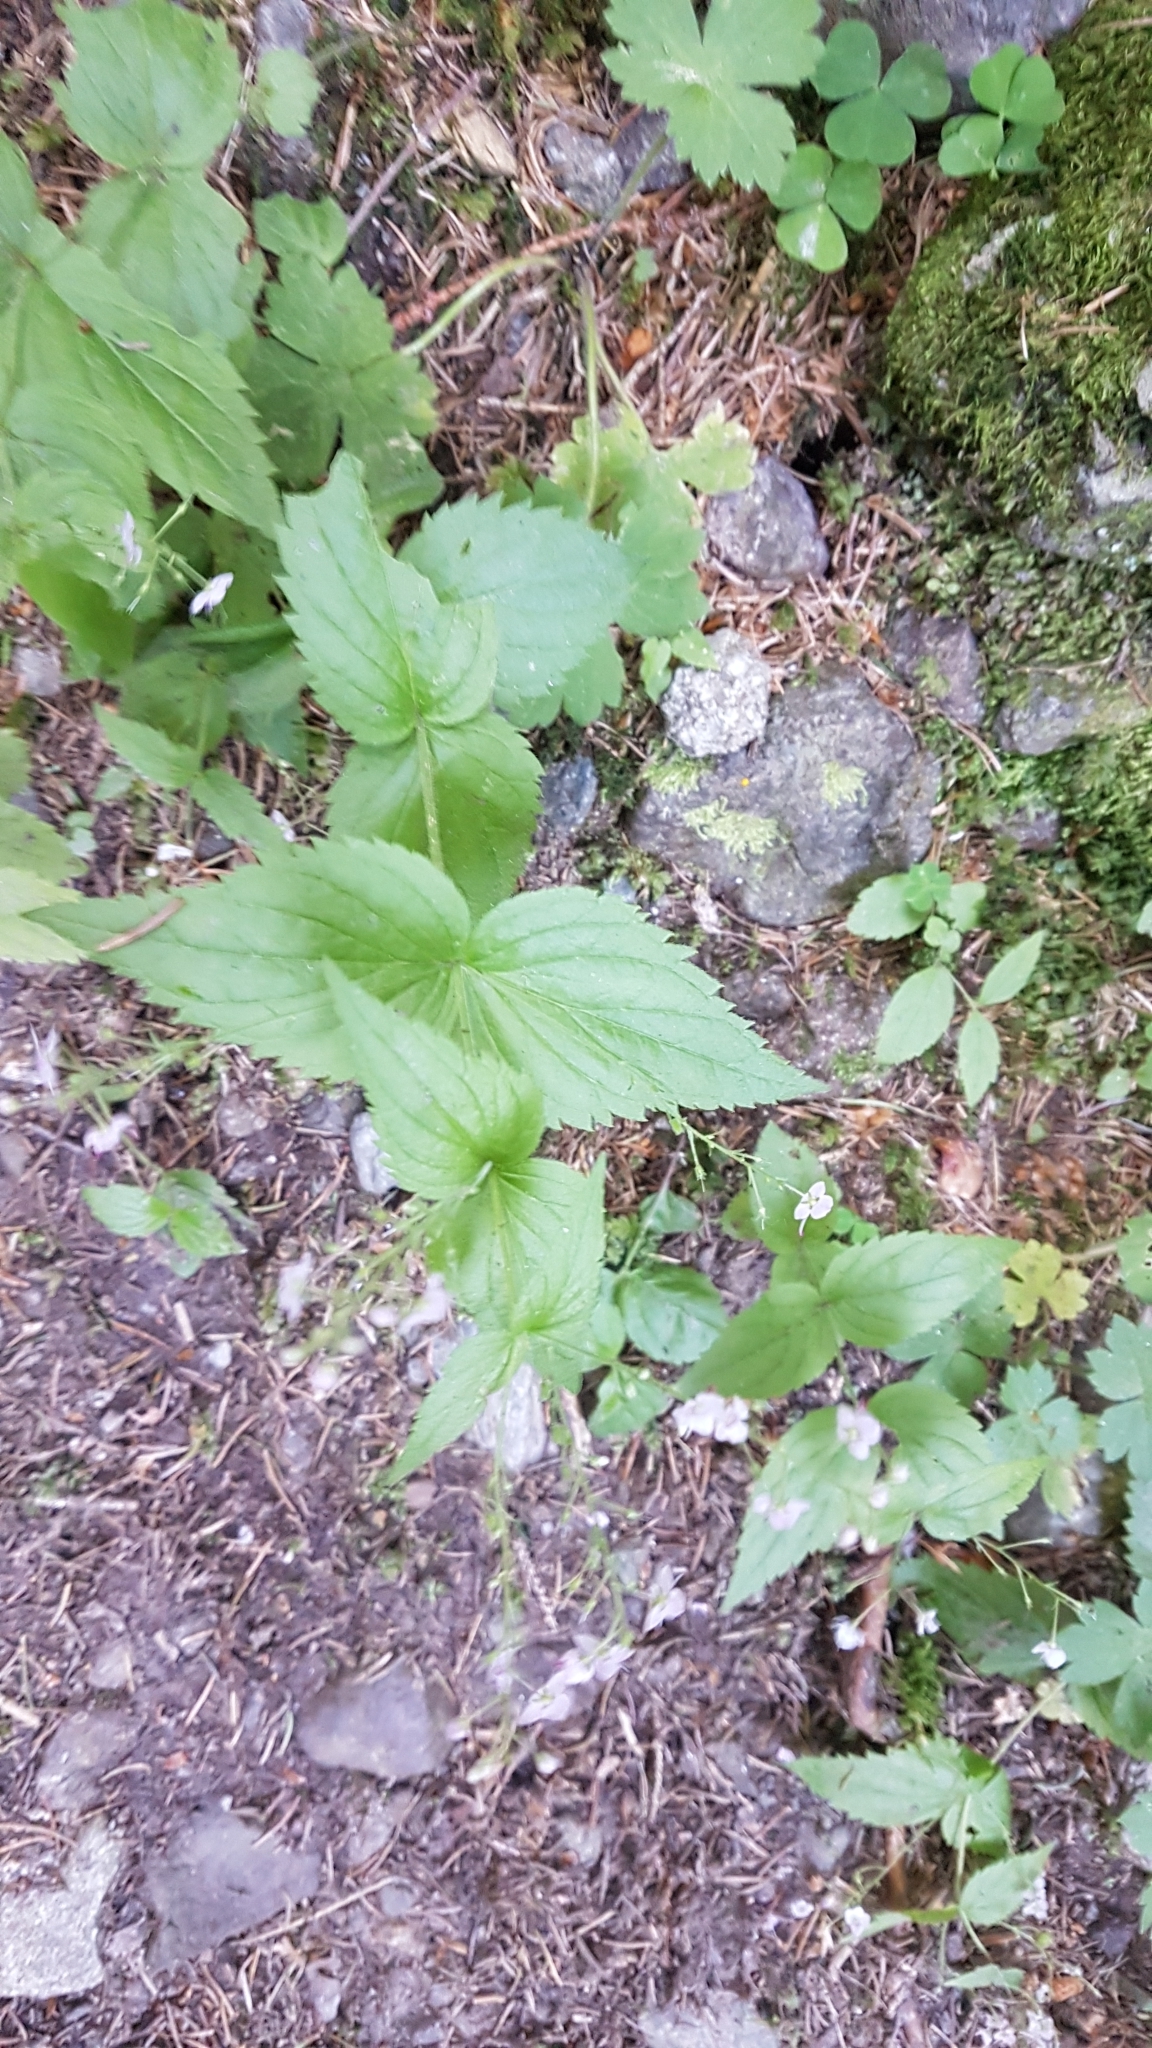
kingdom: Plantae
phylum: Tracheophyta
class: Magnoliopsida
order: Lamiales
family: Plantaginaceae
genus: Veronica
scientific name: Veronica urticifolia
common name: Nettle-leaf speedwell
